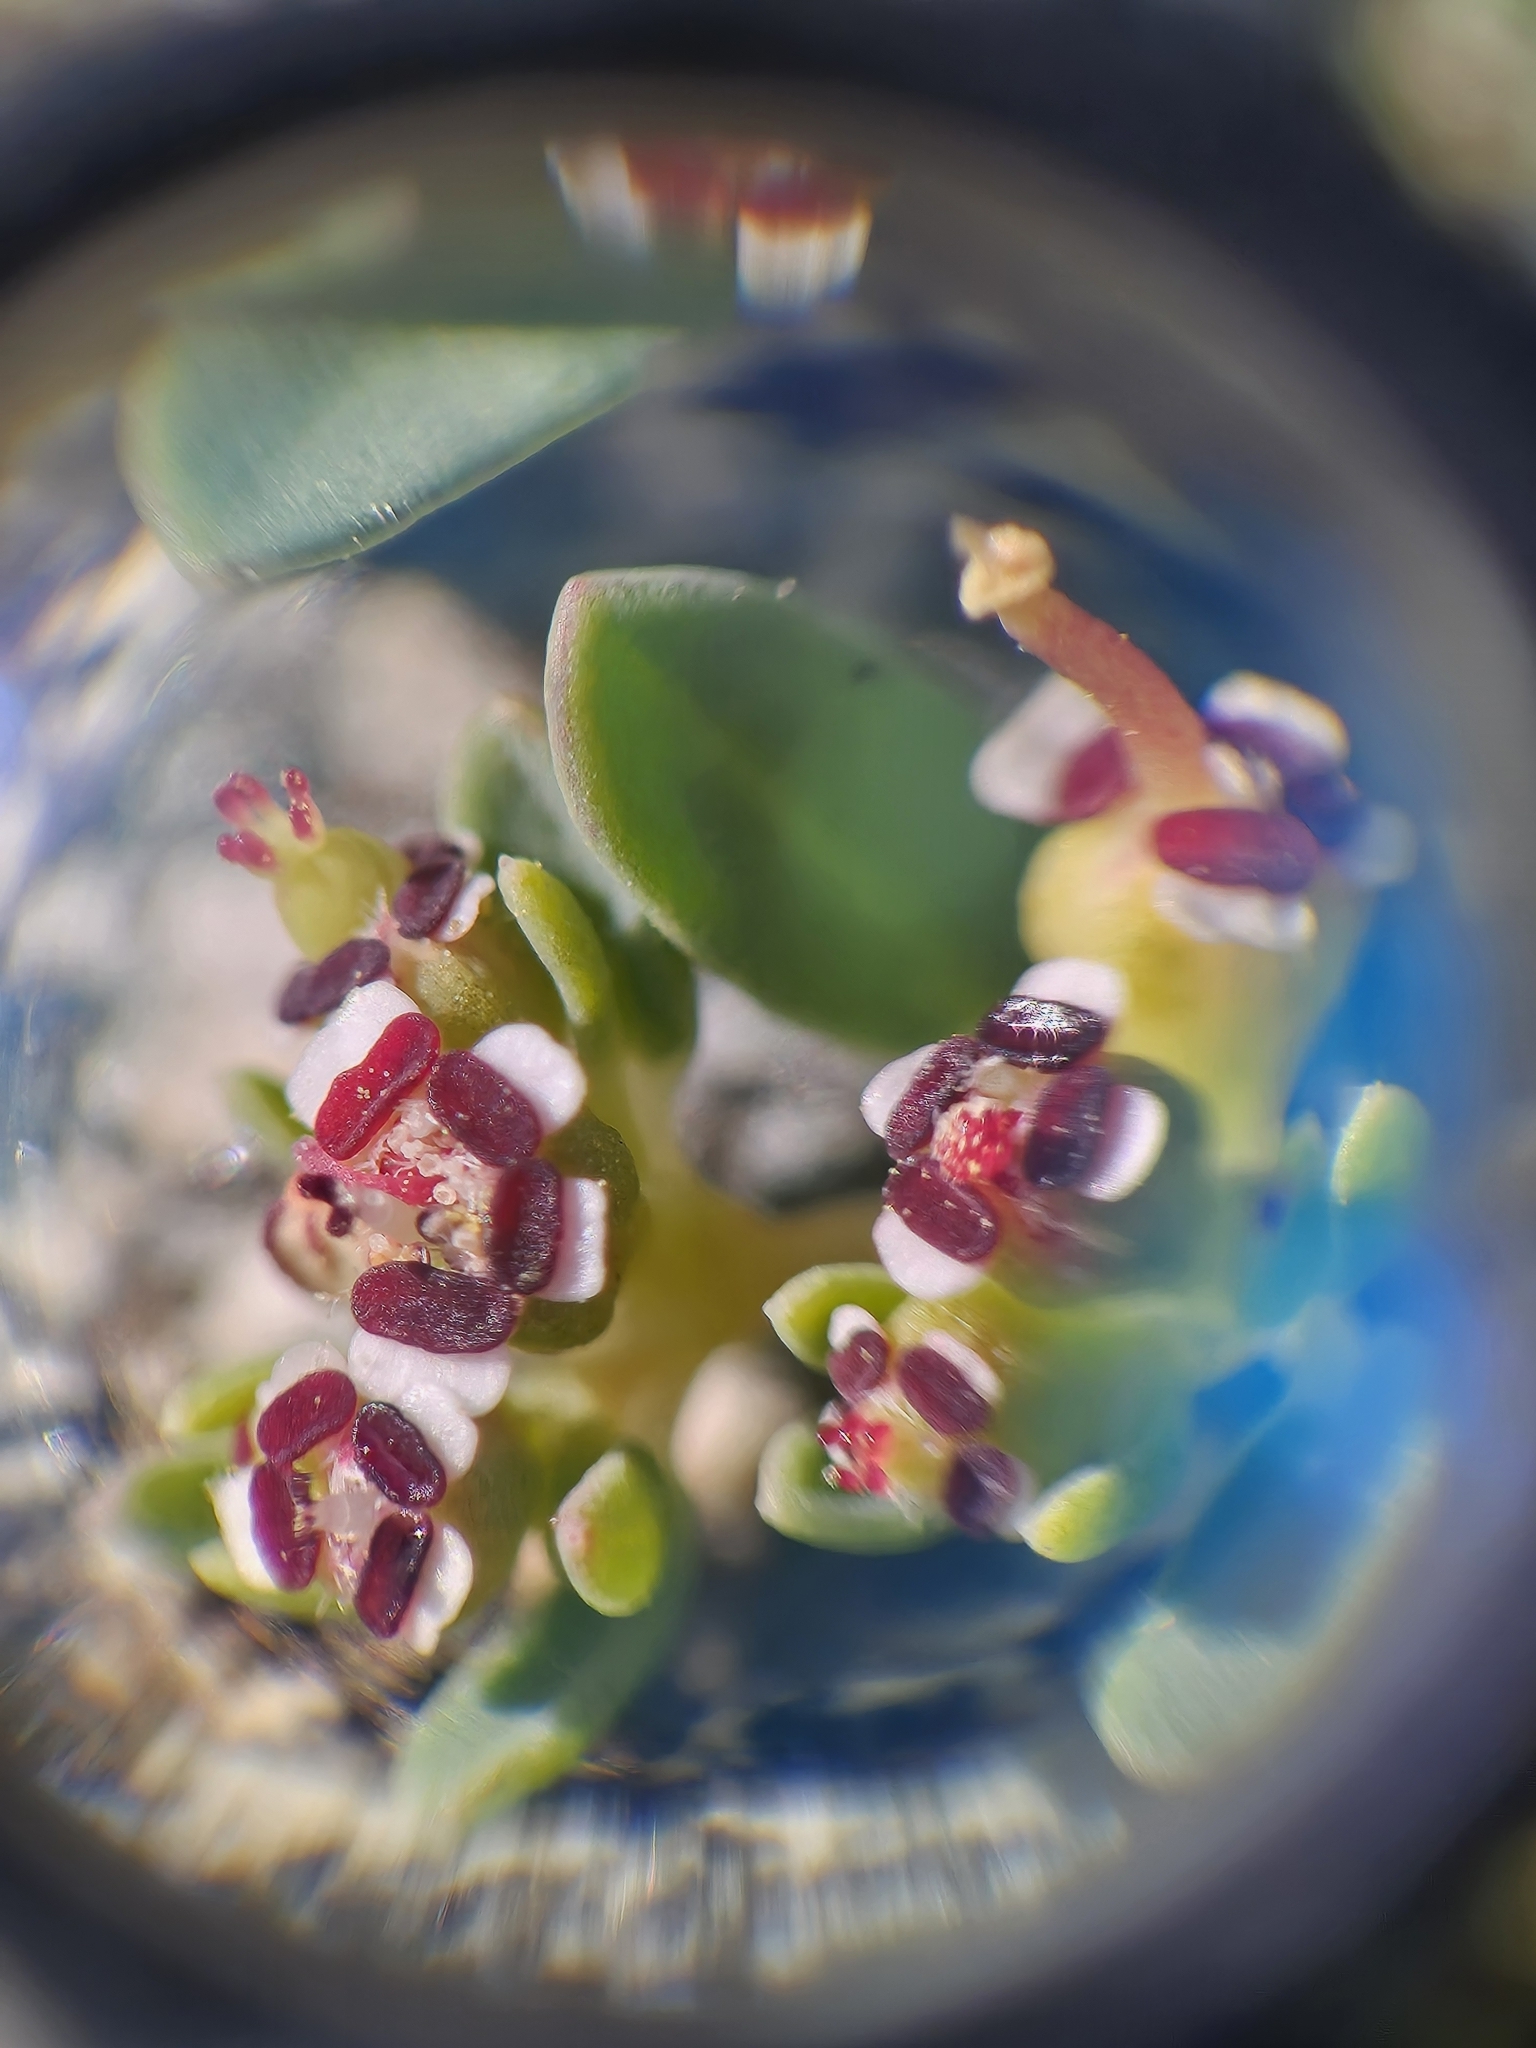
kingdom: Plantae
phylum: Tracheophyta
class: Magnoliopsida
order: Malpighiales
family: Euphorbiaceae
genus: Euphorbia
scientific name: Euphorbia polycarpa
